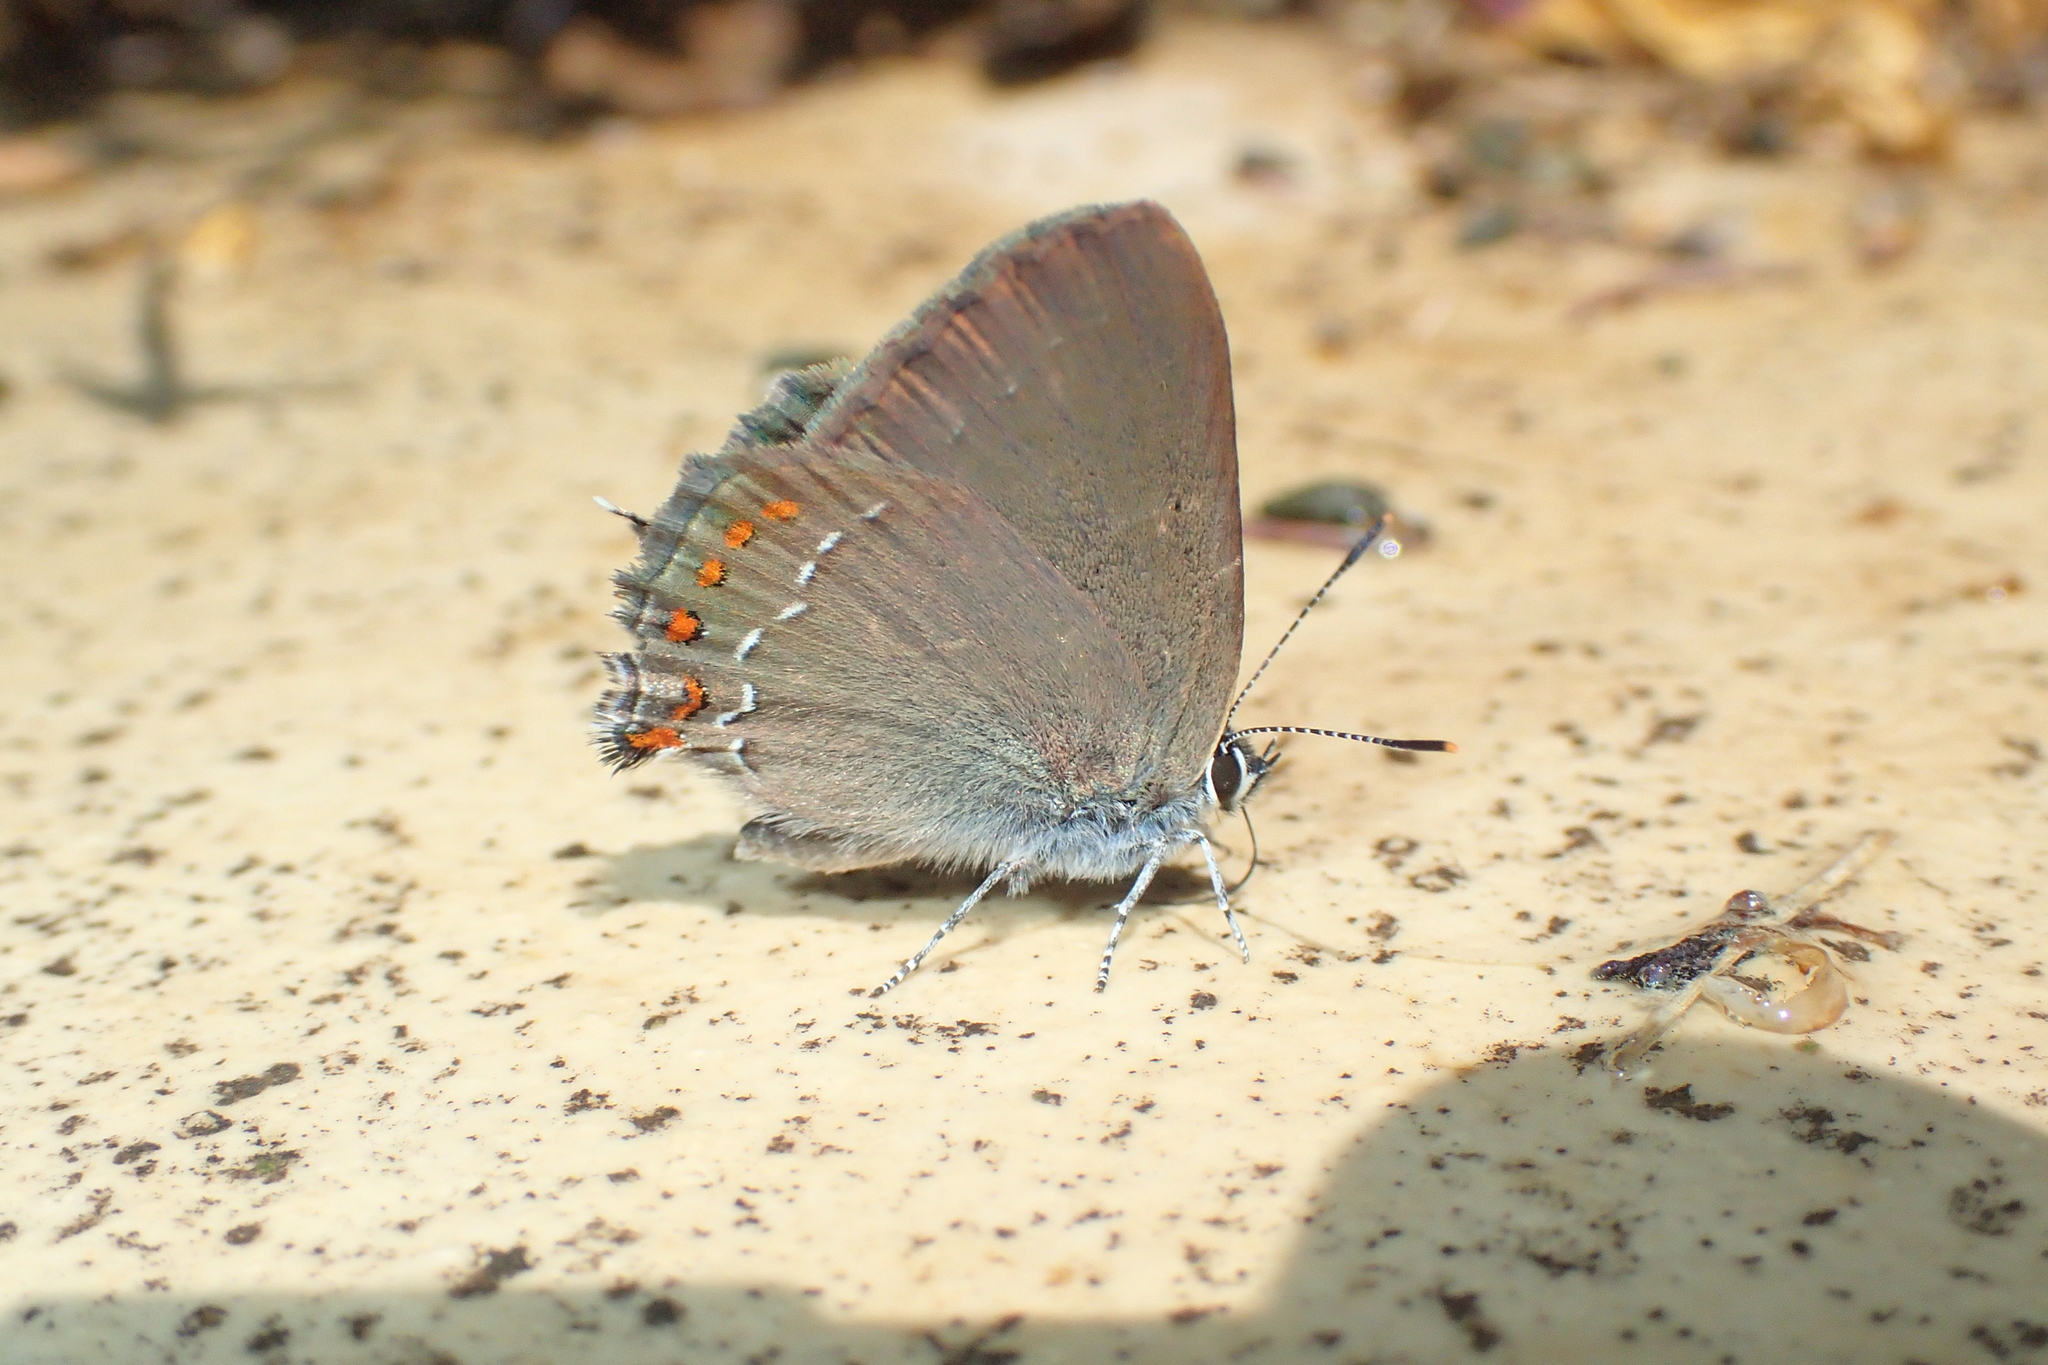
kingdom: Animalia
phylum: Arthropoda
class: Insecta
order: Lepidoptera
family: Lycaenidae
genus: Fixsenia
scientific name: Fixsenia esculi
